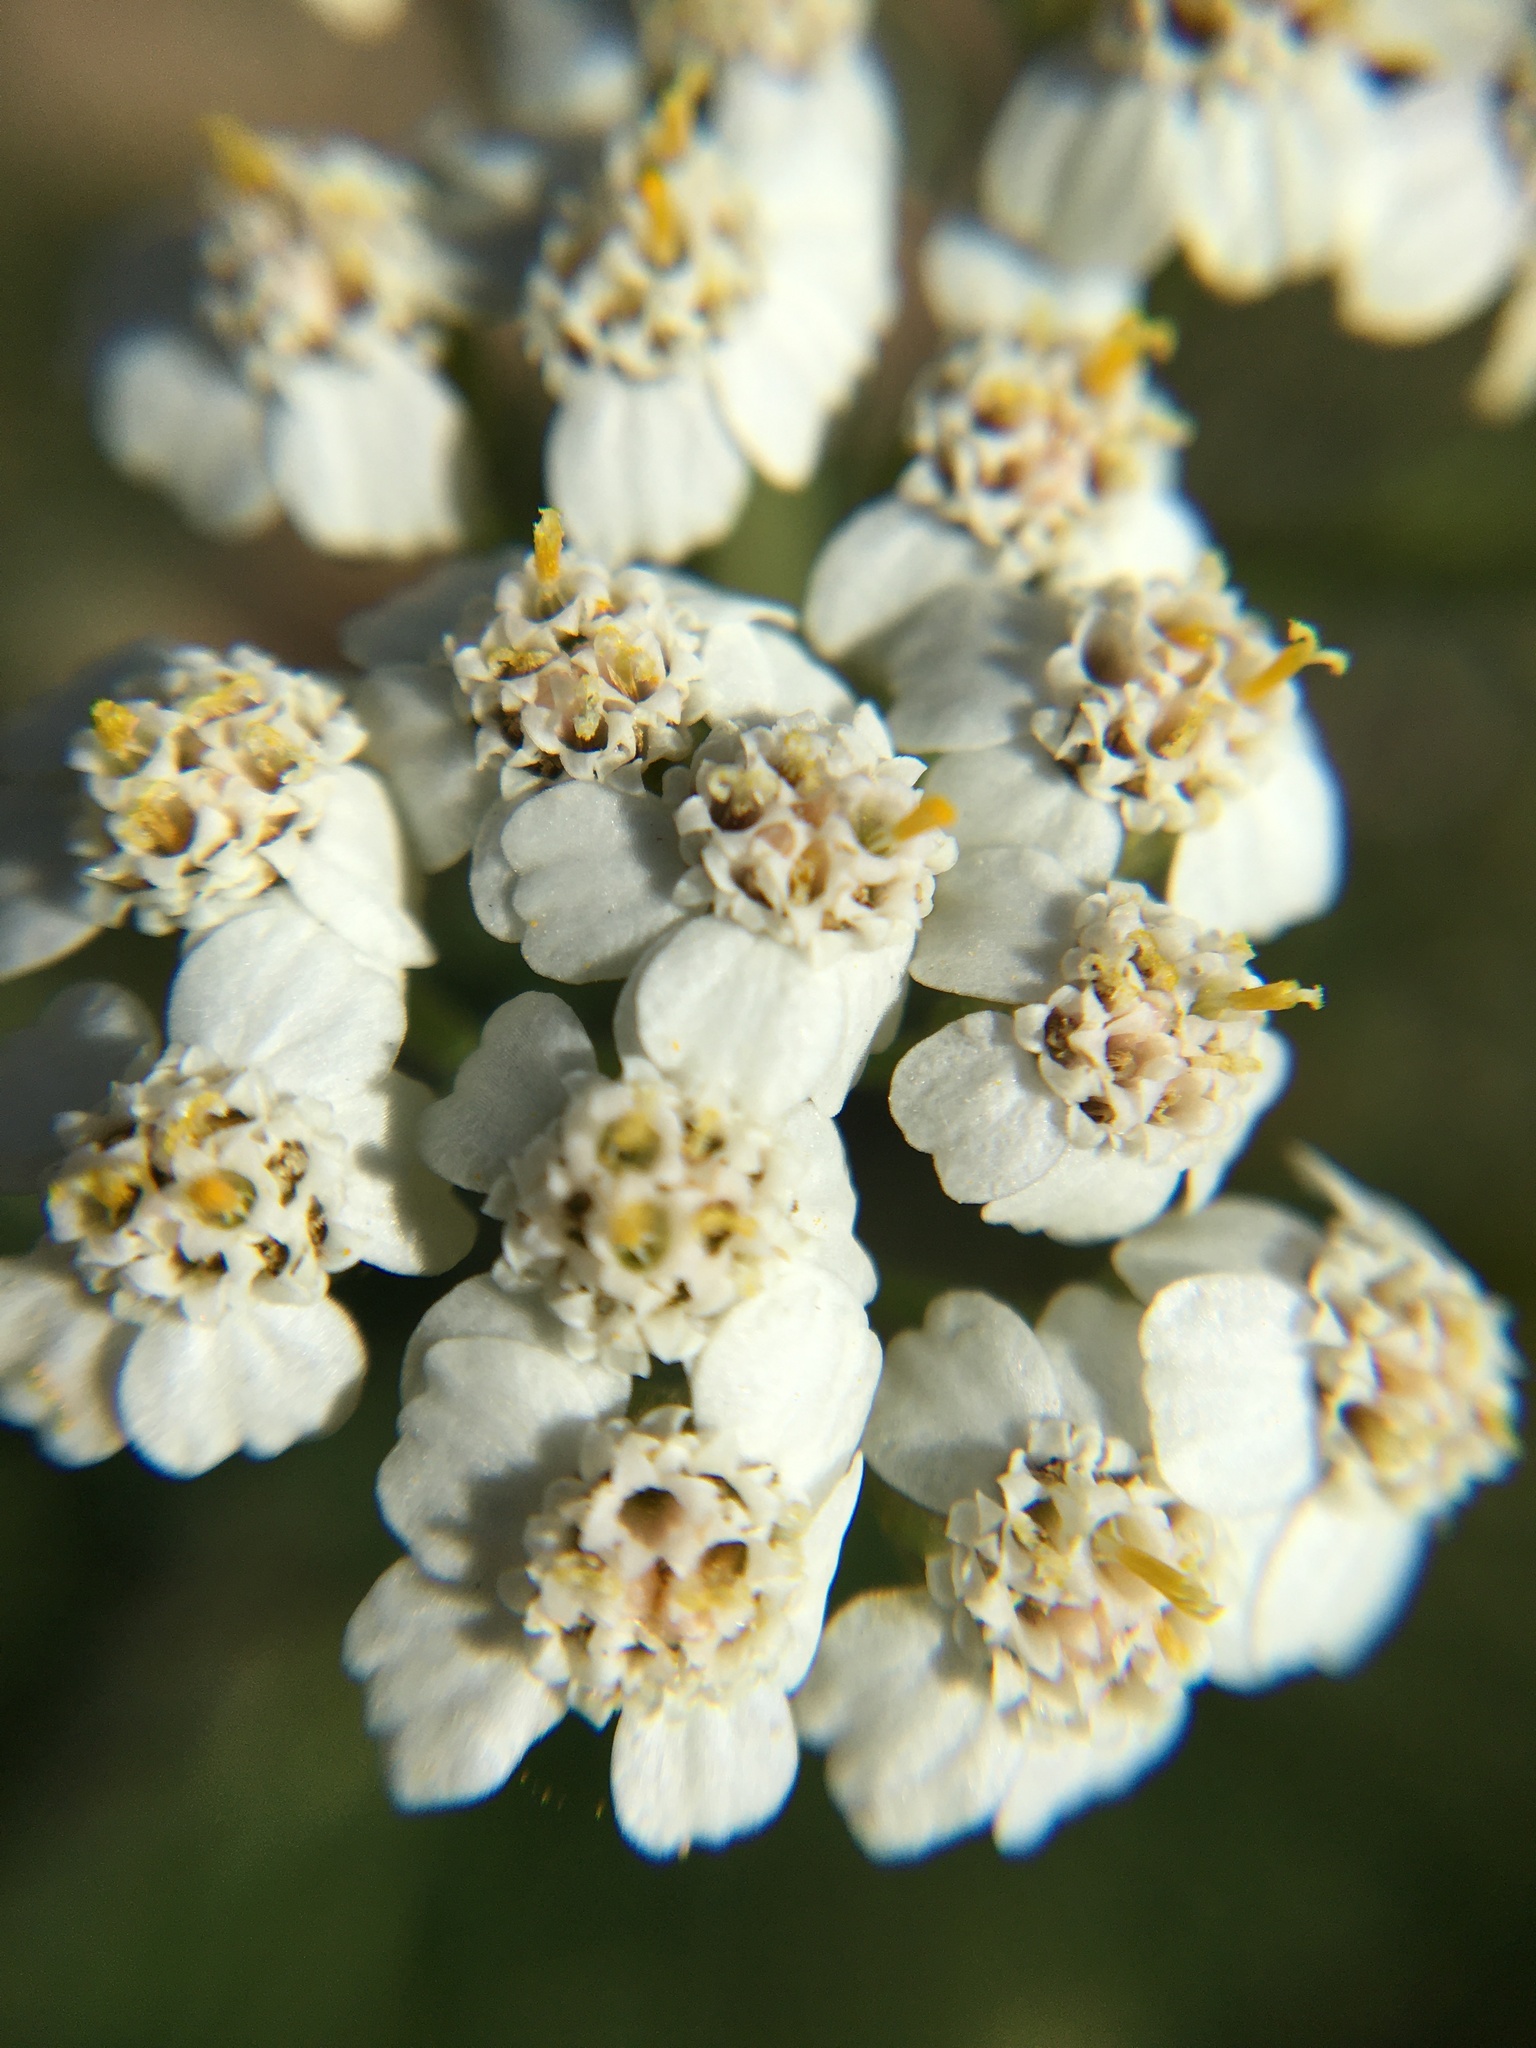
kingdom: Plantae
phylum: Tracheophyta
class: Magnoliopsida
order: Asterales
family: Asteraceae
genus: Achillea
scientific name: Achillea millefolium
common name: Yarrow
